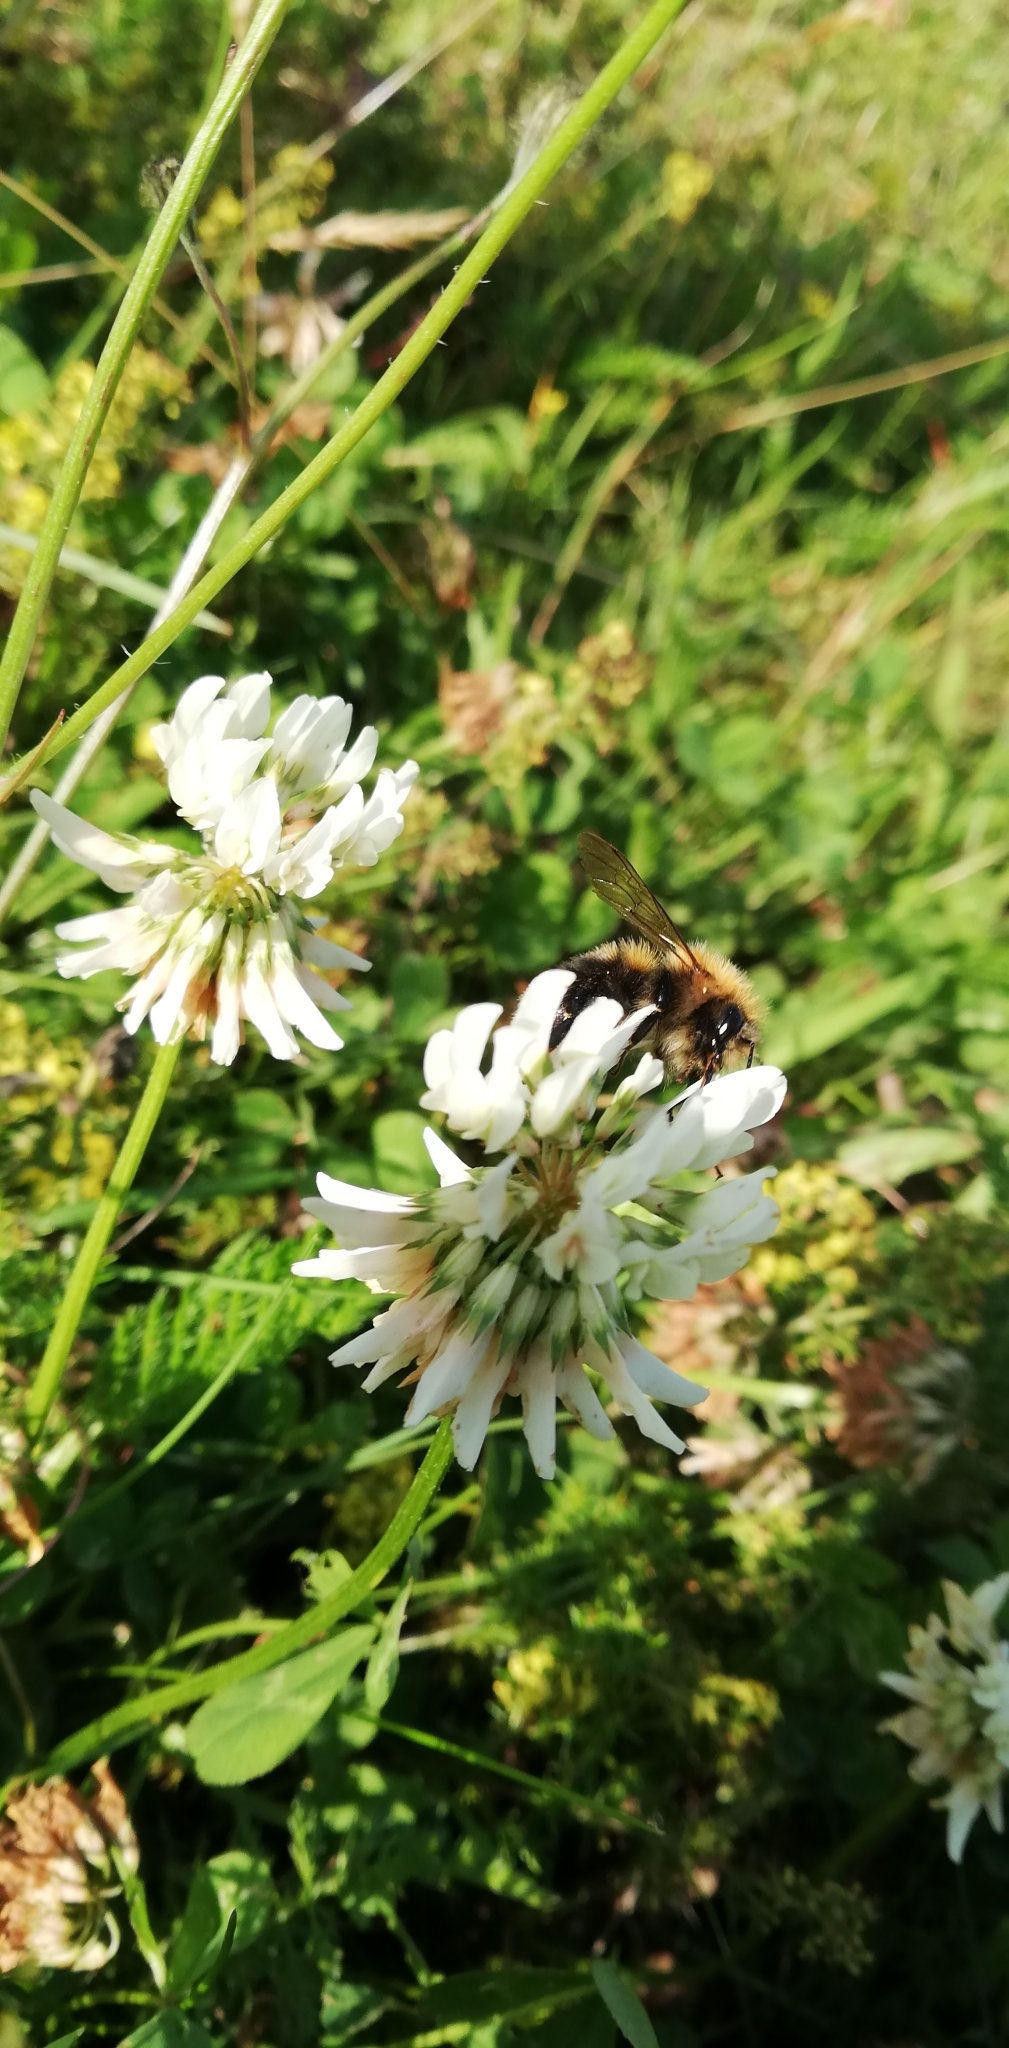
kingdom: Animalia
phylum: Arthropoda
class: Insecta
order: Hymenoptera
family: Apidae
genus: Bombus
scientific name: Bombus hypnorum
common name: New garden bumblebee
